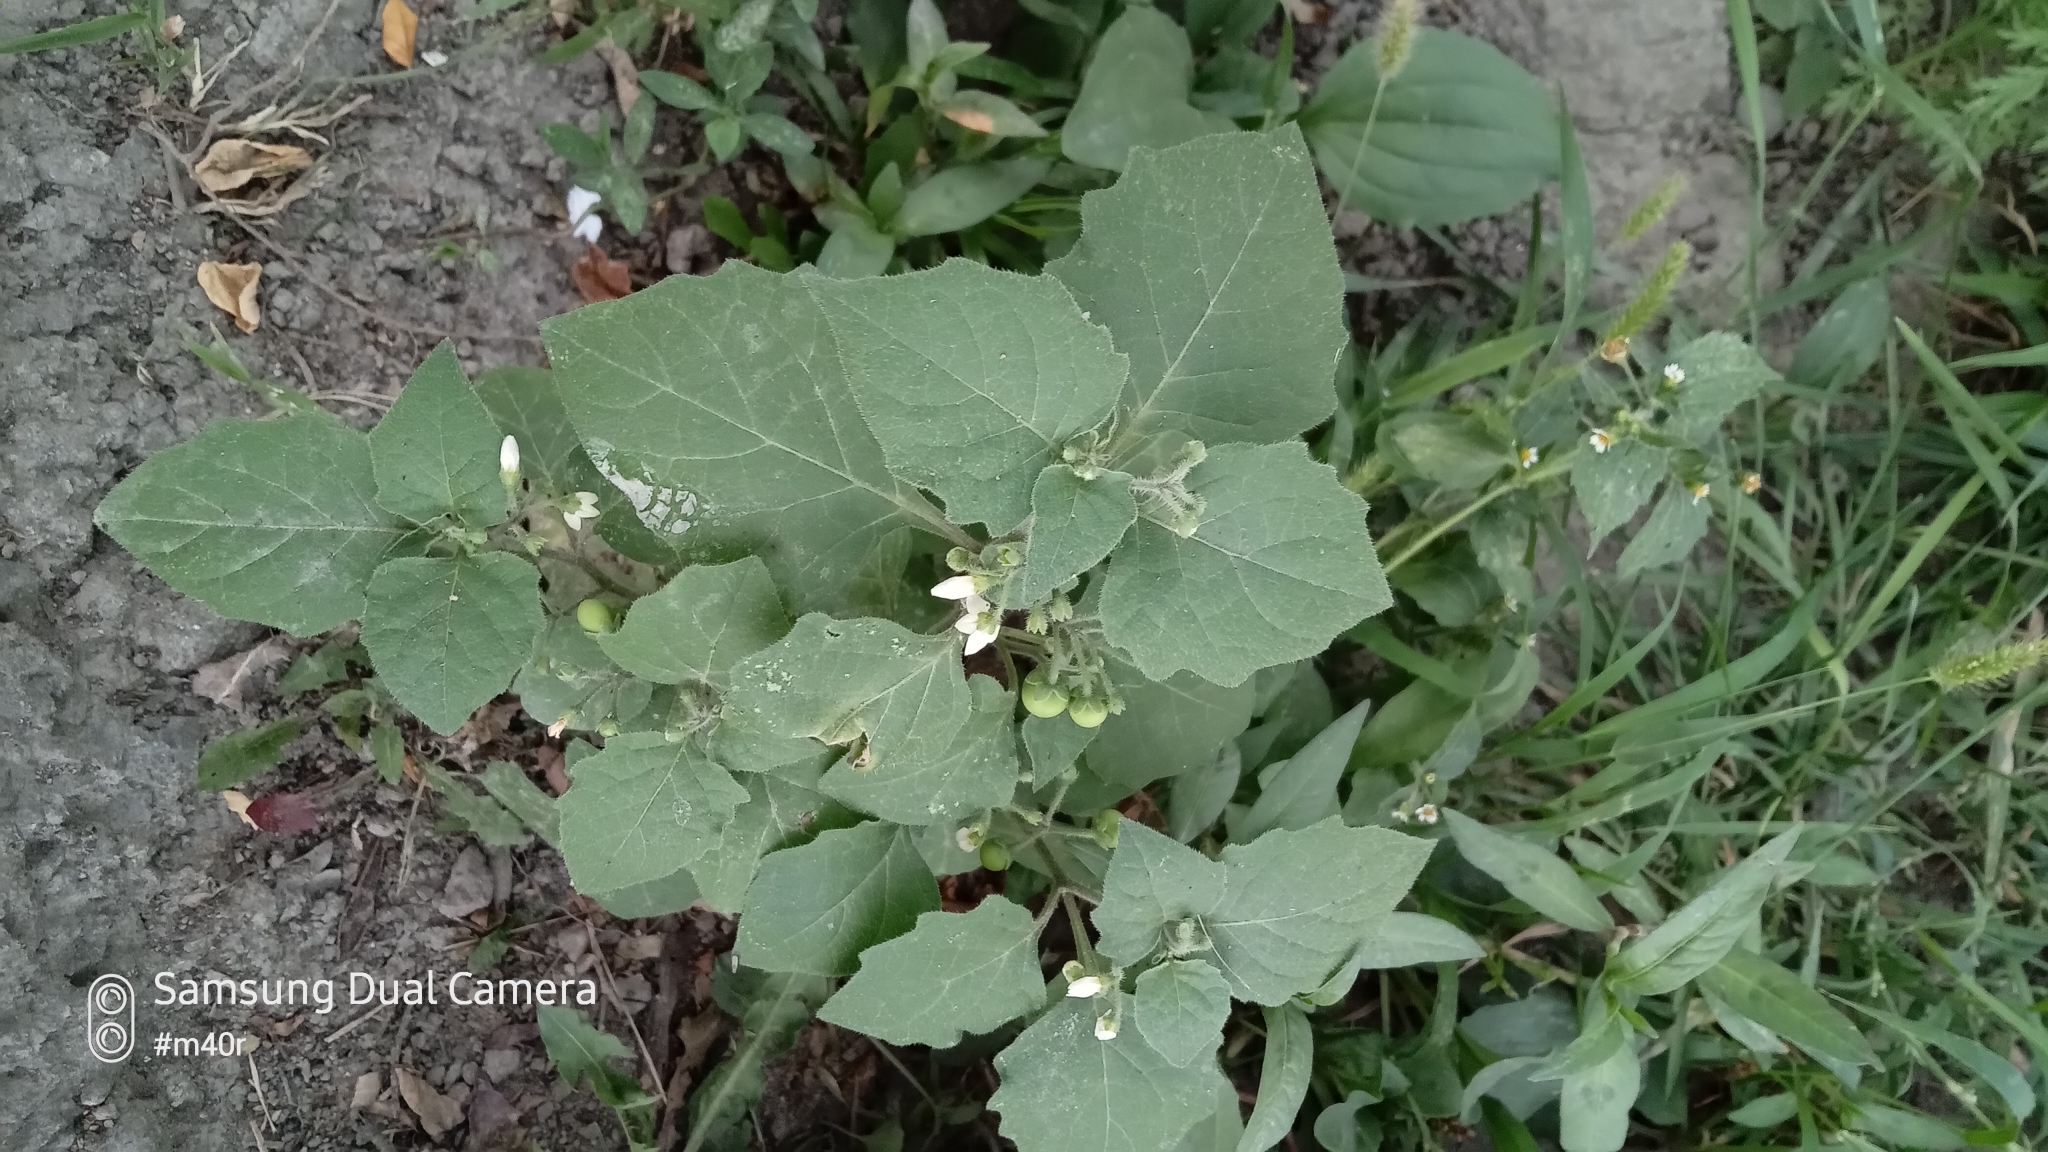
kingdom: Plantae
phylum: Tracheophyta
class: Magnoliopsida
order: Solanales
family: Solanaceae
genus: Solanum
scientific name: Solanum nigrum
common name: Black nightshade
